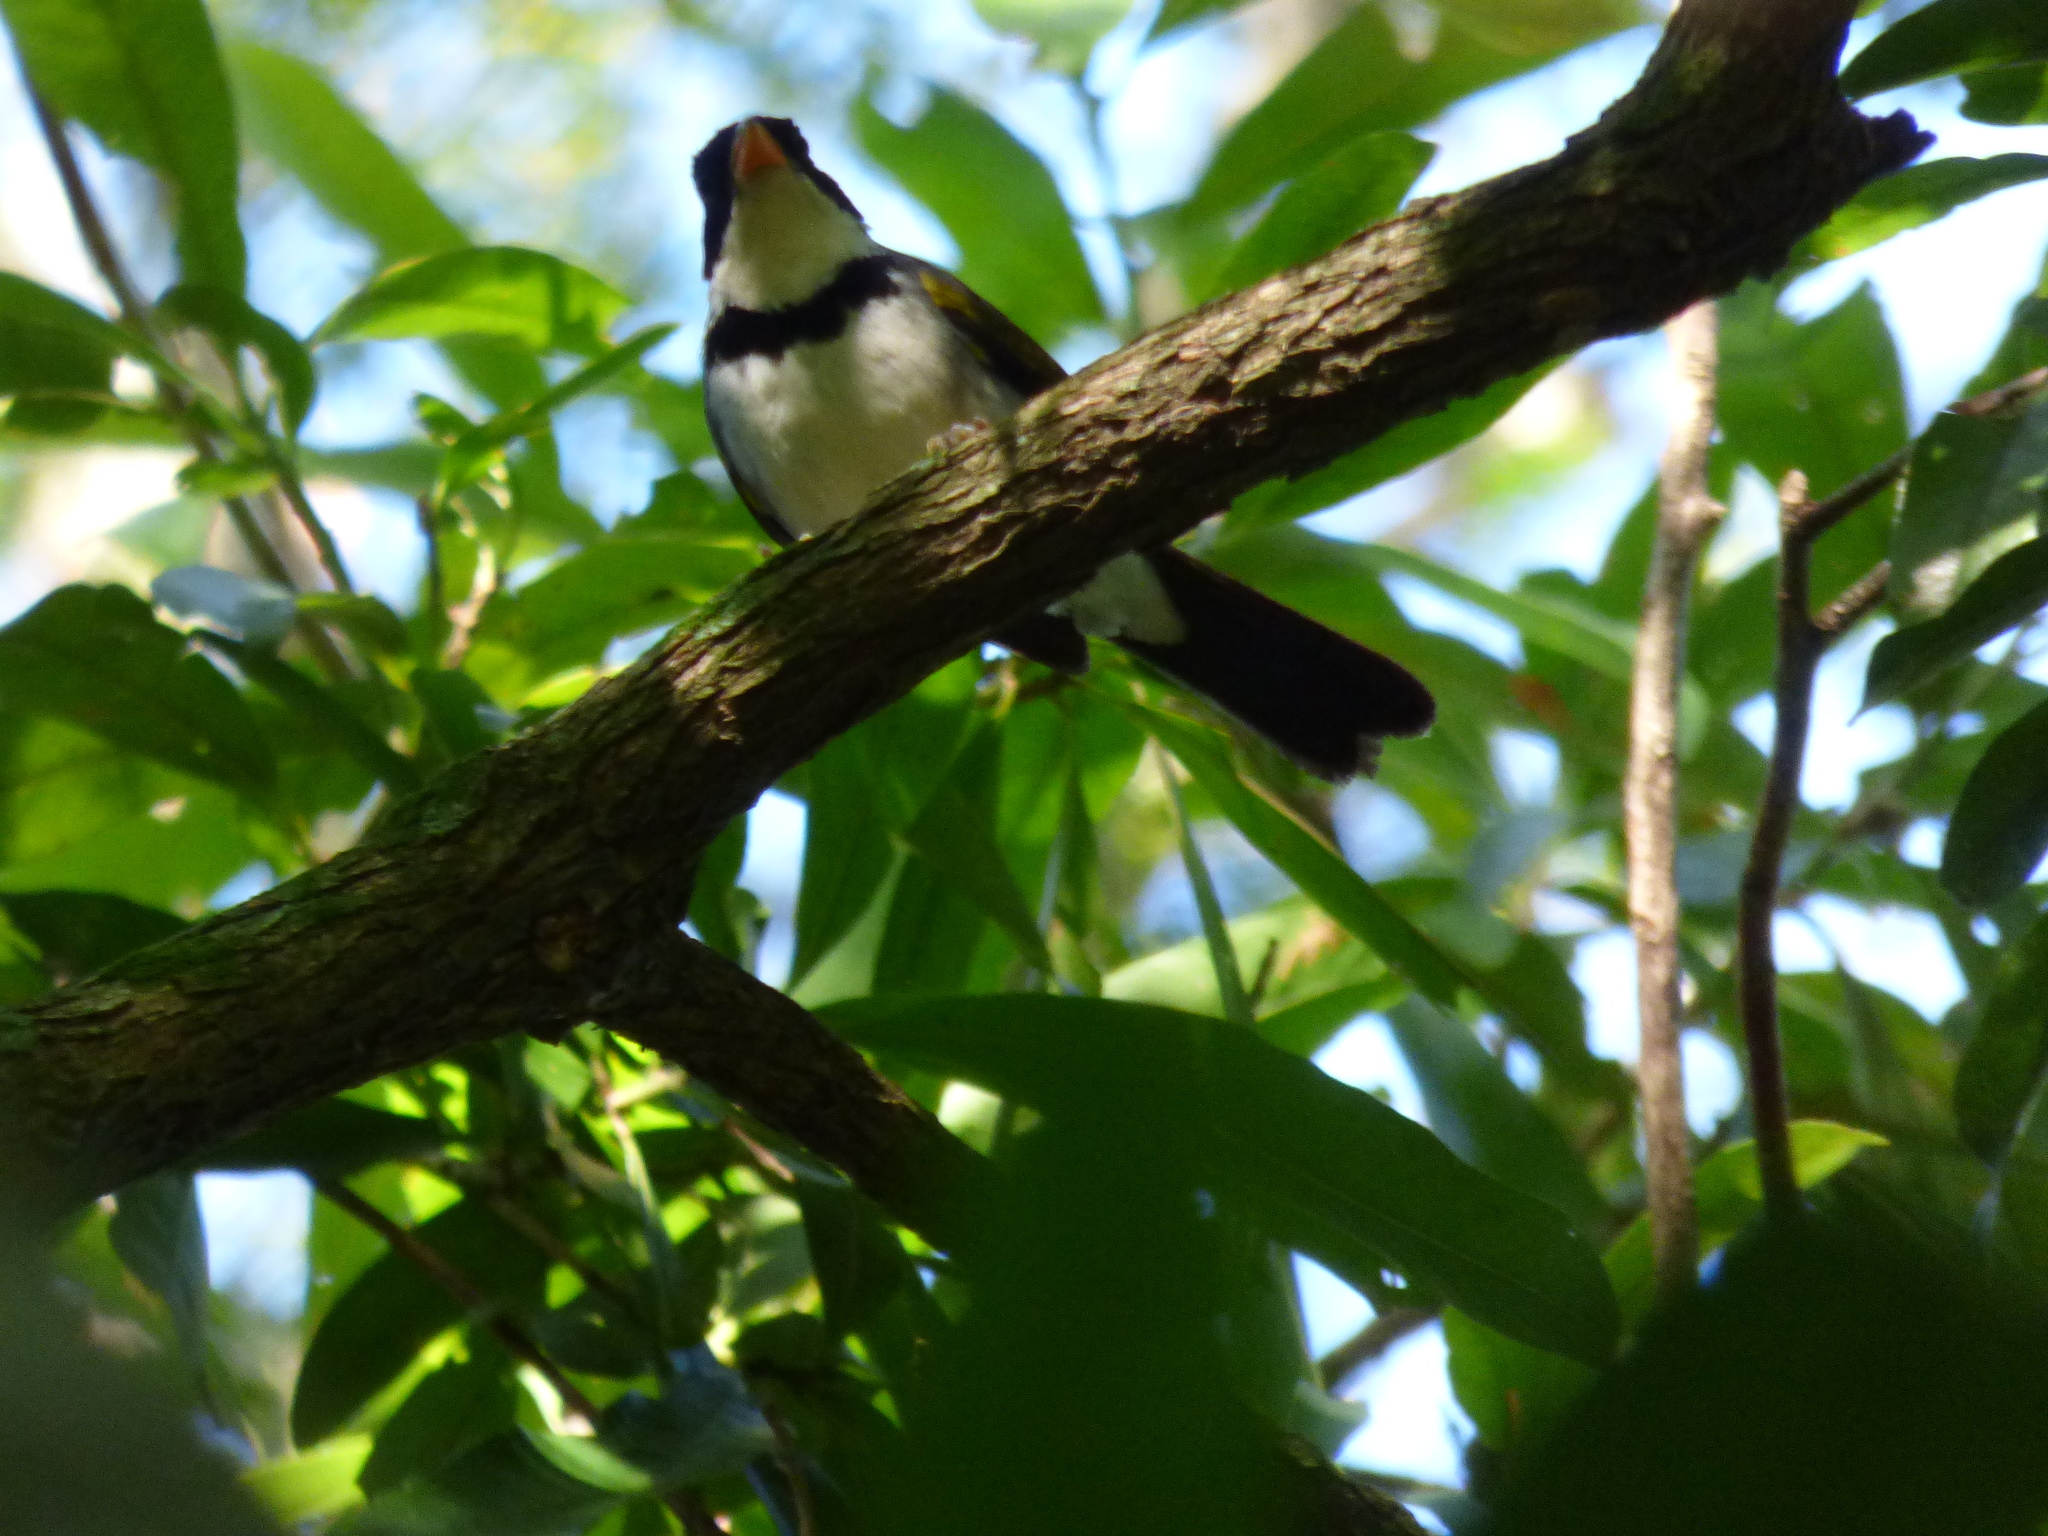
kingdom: Animalia
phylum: Chordata
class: Aves
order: Passeriformes
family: Passerellidae
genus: Arremon
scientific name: Arremon flavirostris
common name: Saffron-billed sparrow
